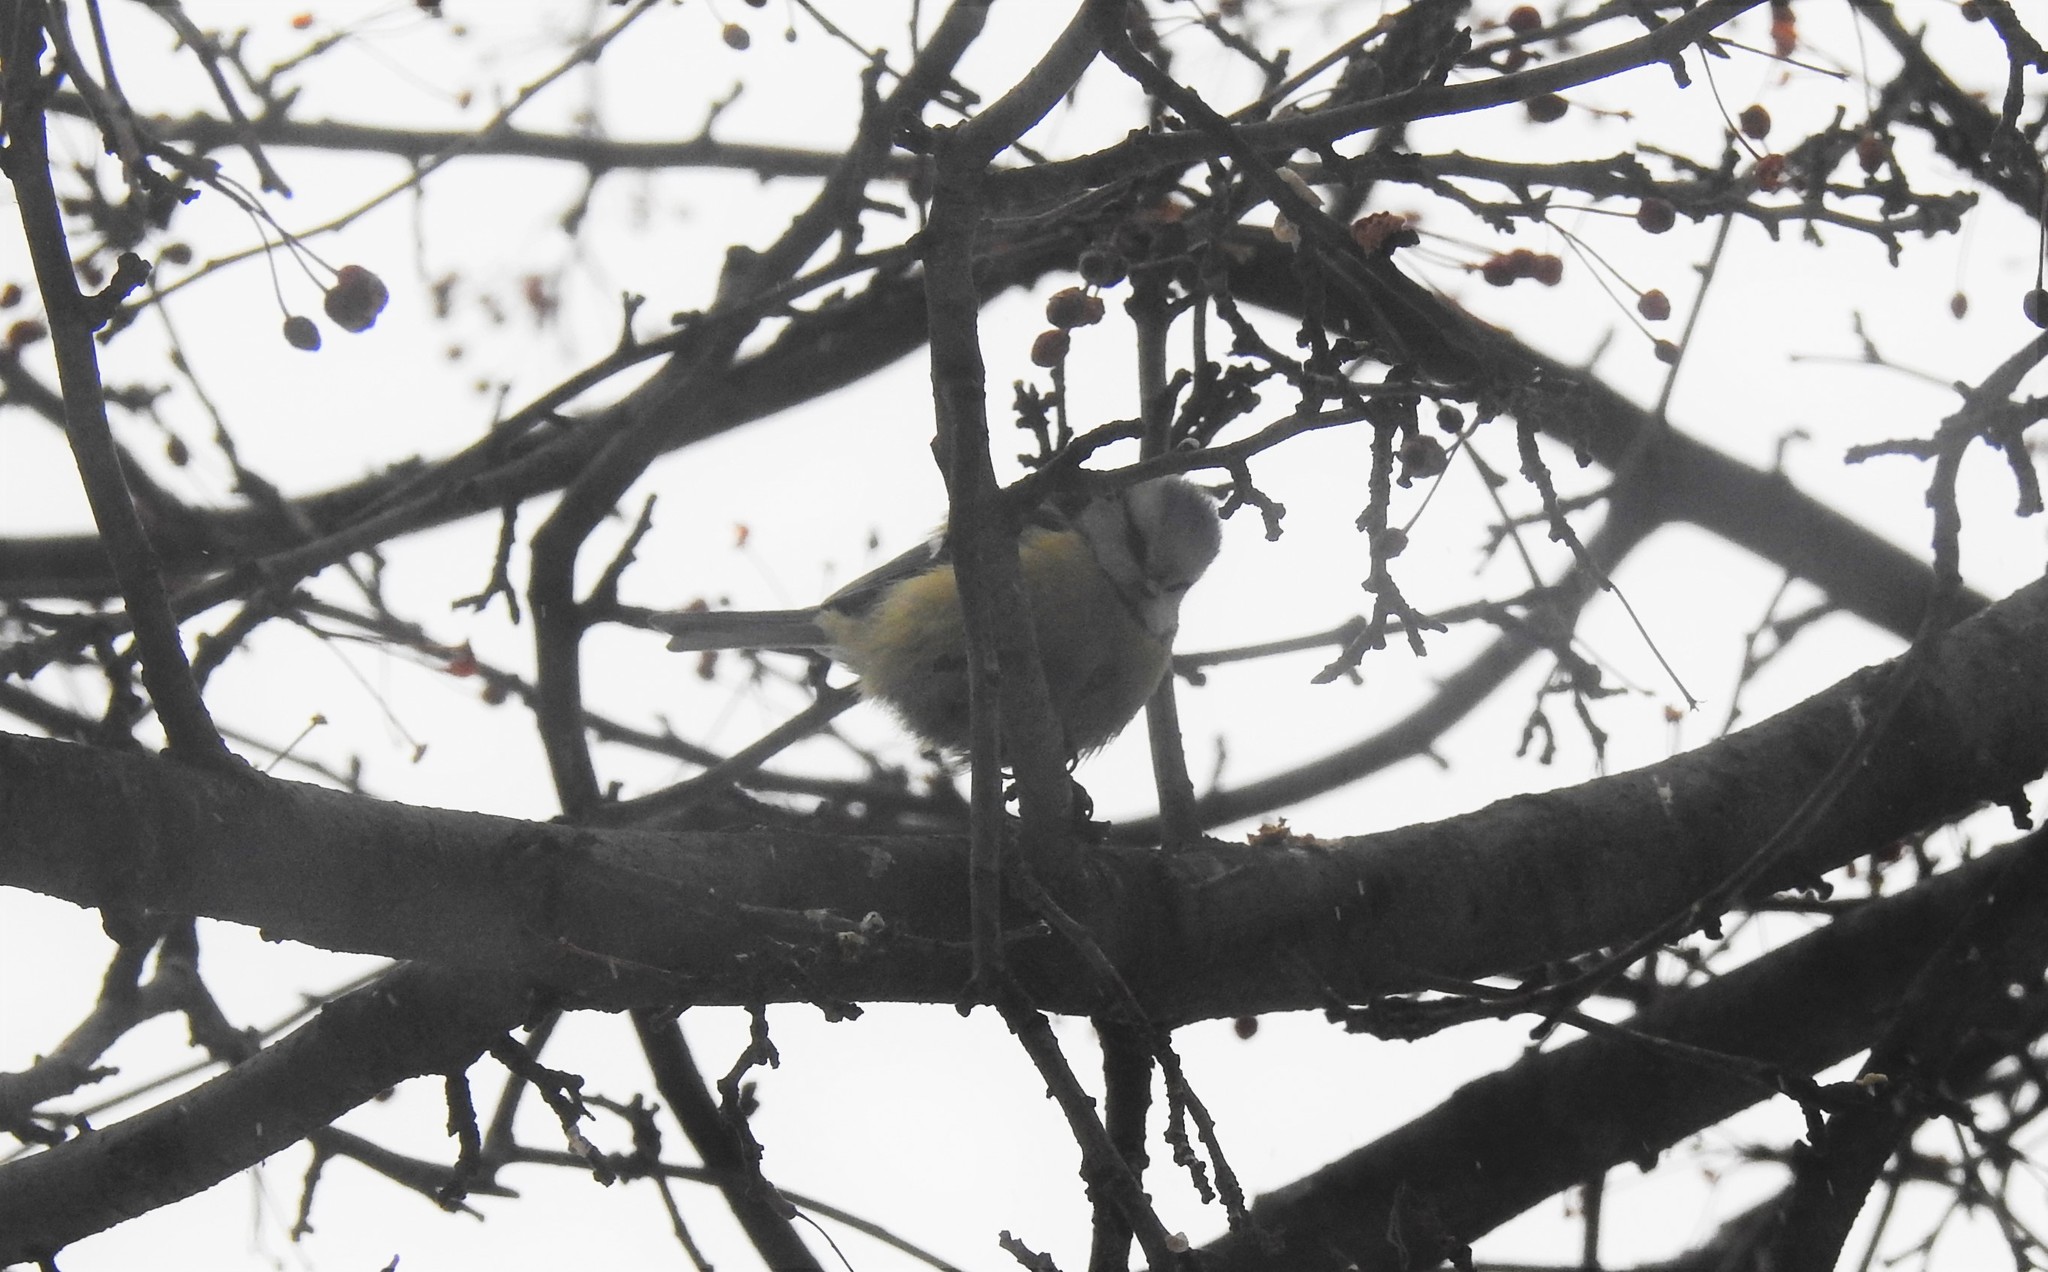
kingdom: Animalia
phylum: Chordata
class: Aves
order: Passeriformes
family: Paridae
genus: Cyanistes
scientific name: Cyanistes caeruleus
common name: Eurasian blue tit
